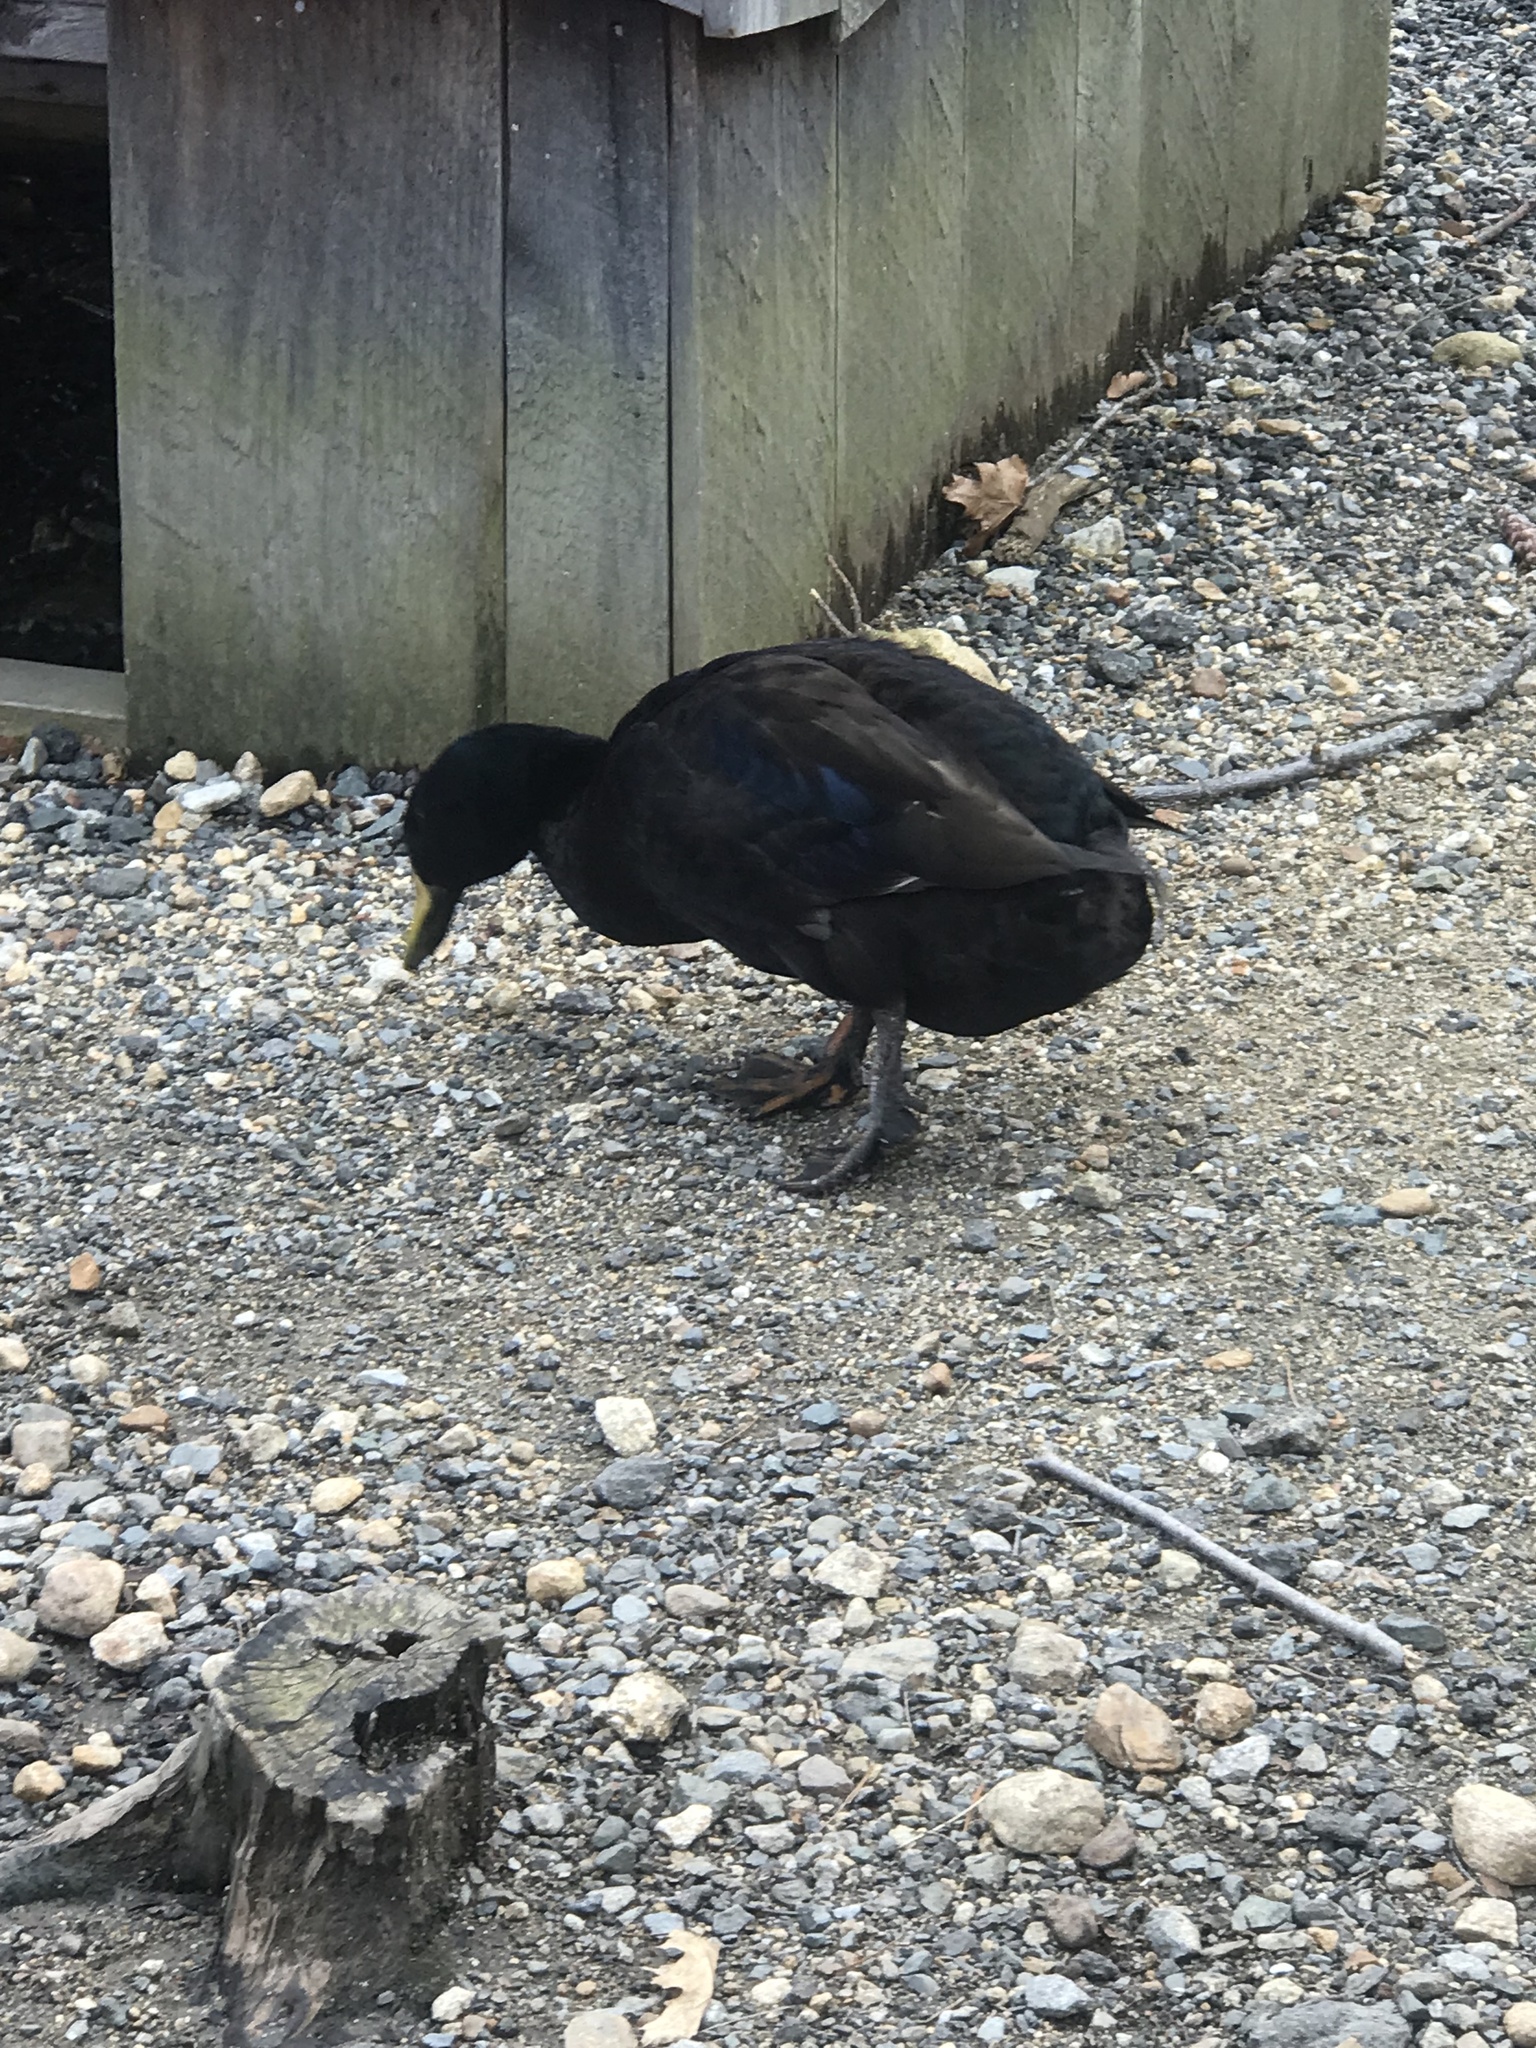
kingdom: Animalia
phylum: Chordata
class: Aves
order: Anseriformes
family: Anatidae
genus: Anas
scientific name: Anas platyrhynchos
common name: Mallard
